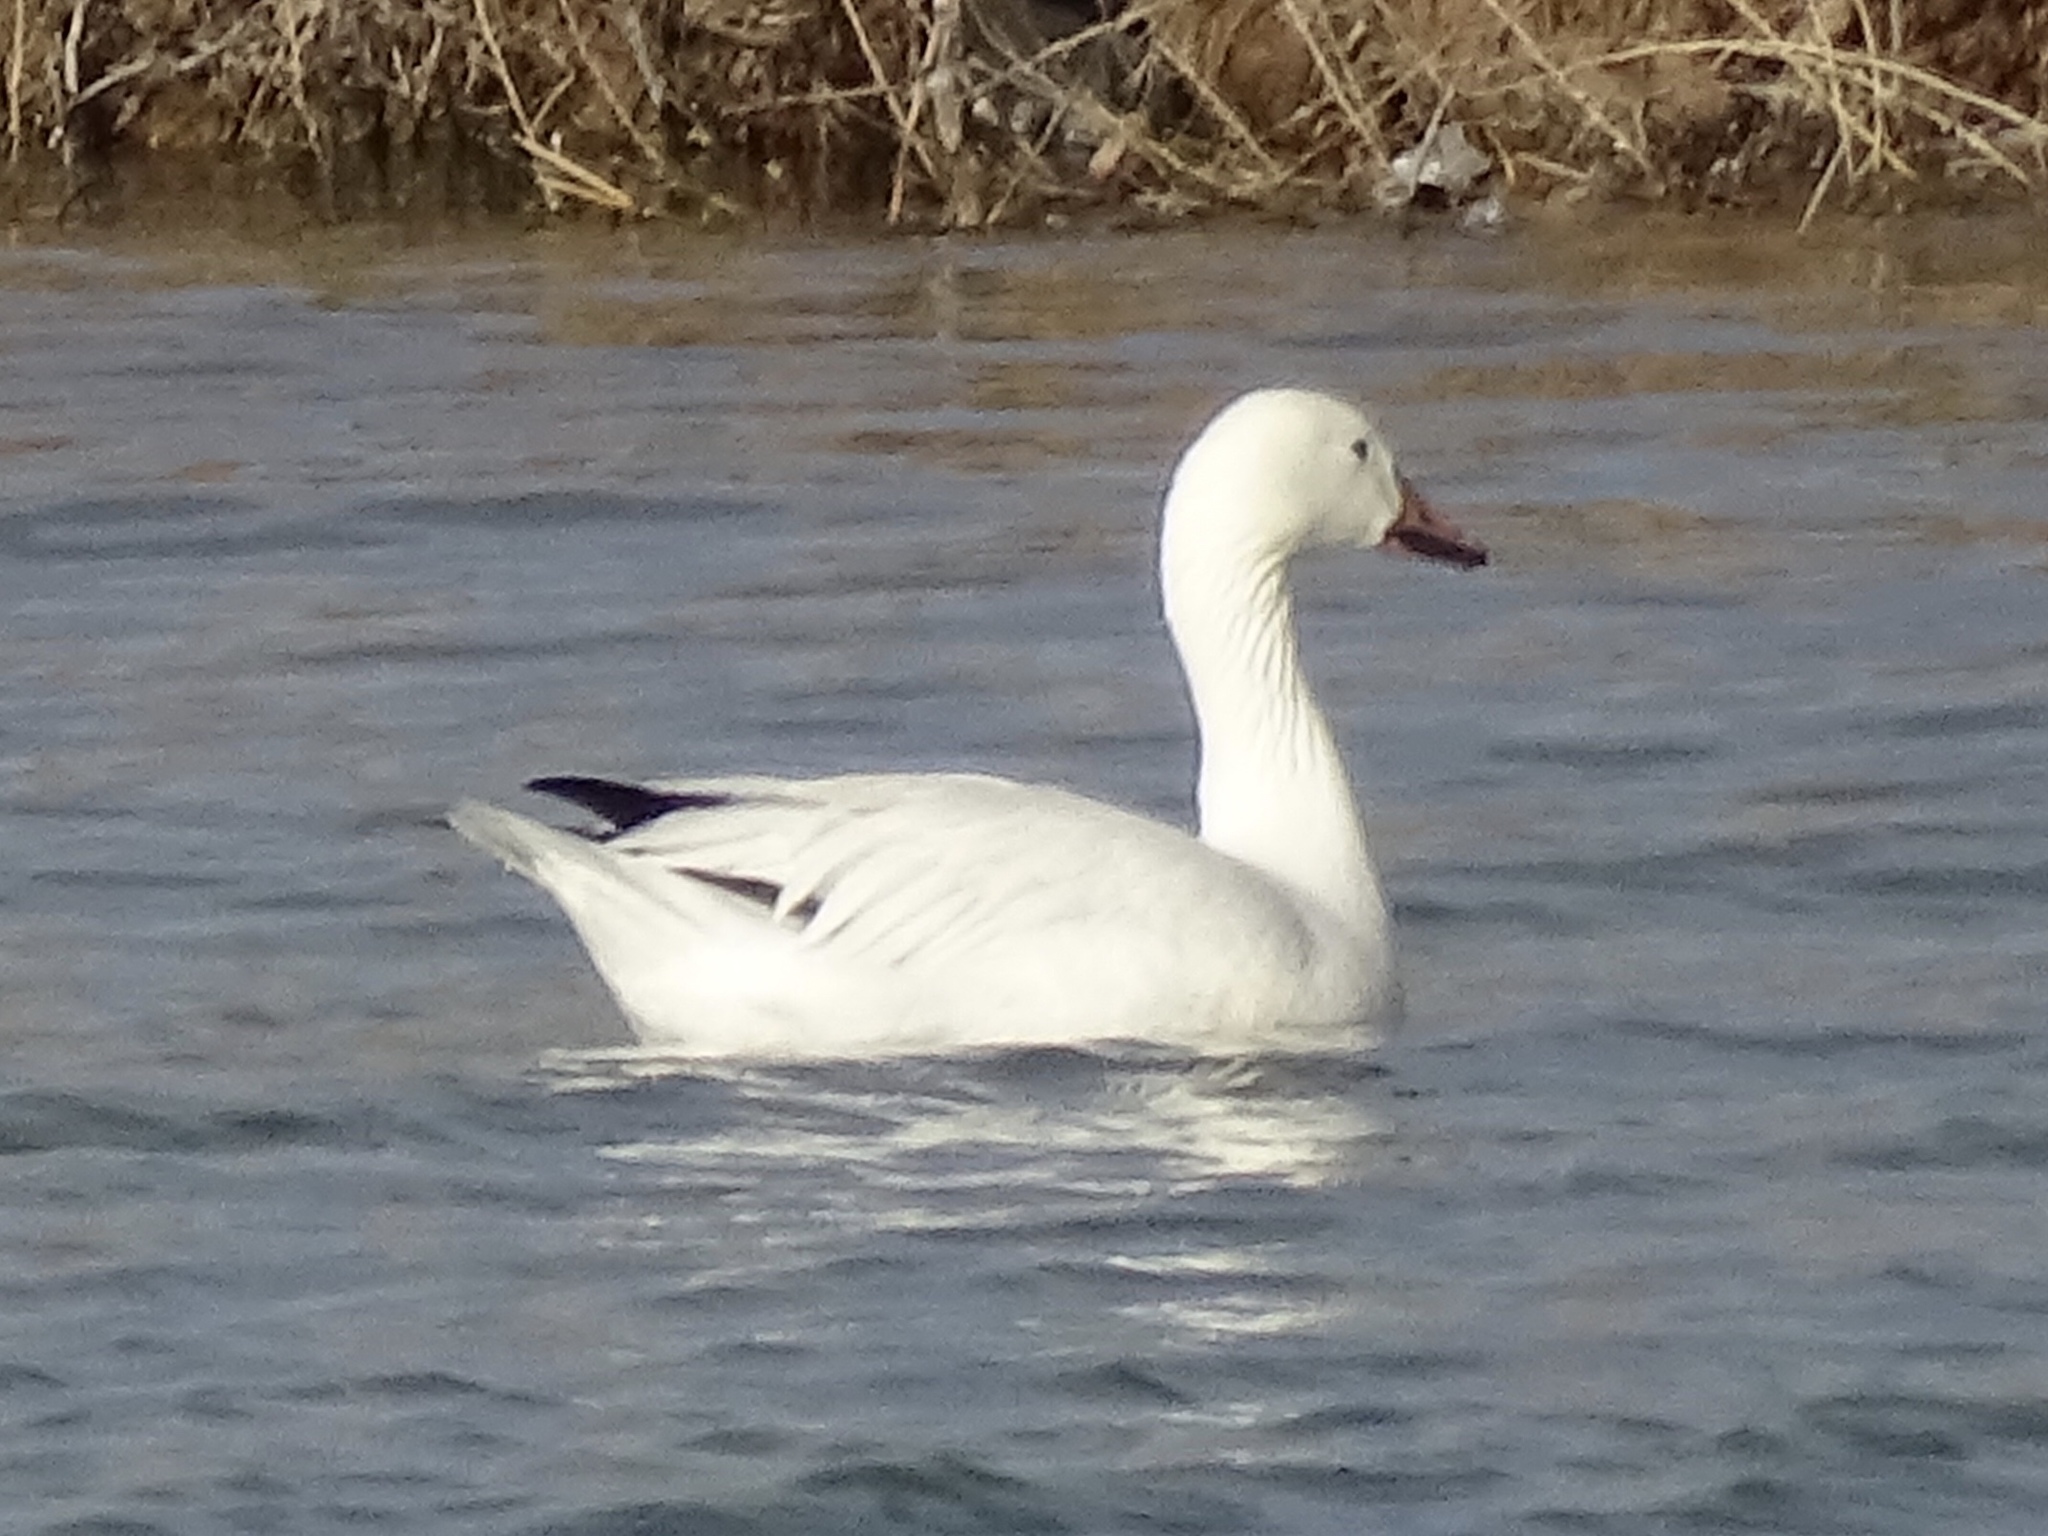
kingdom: Animalia
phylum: Chordata
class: Aves
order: Anseriformes
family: Anatidae
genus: Anser
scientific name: Anser caerulescens
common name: Snow goose
